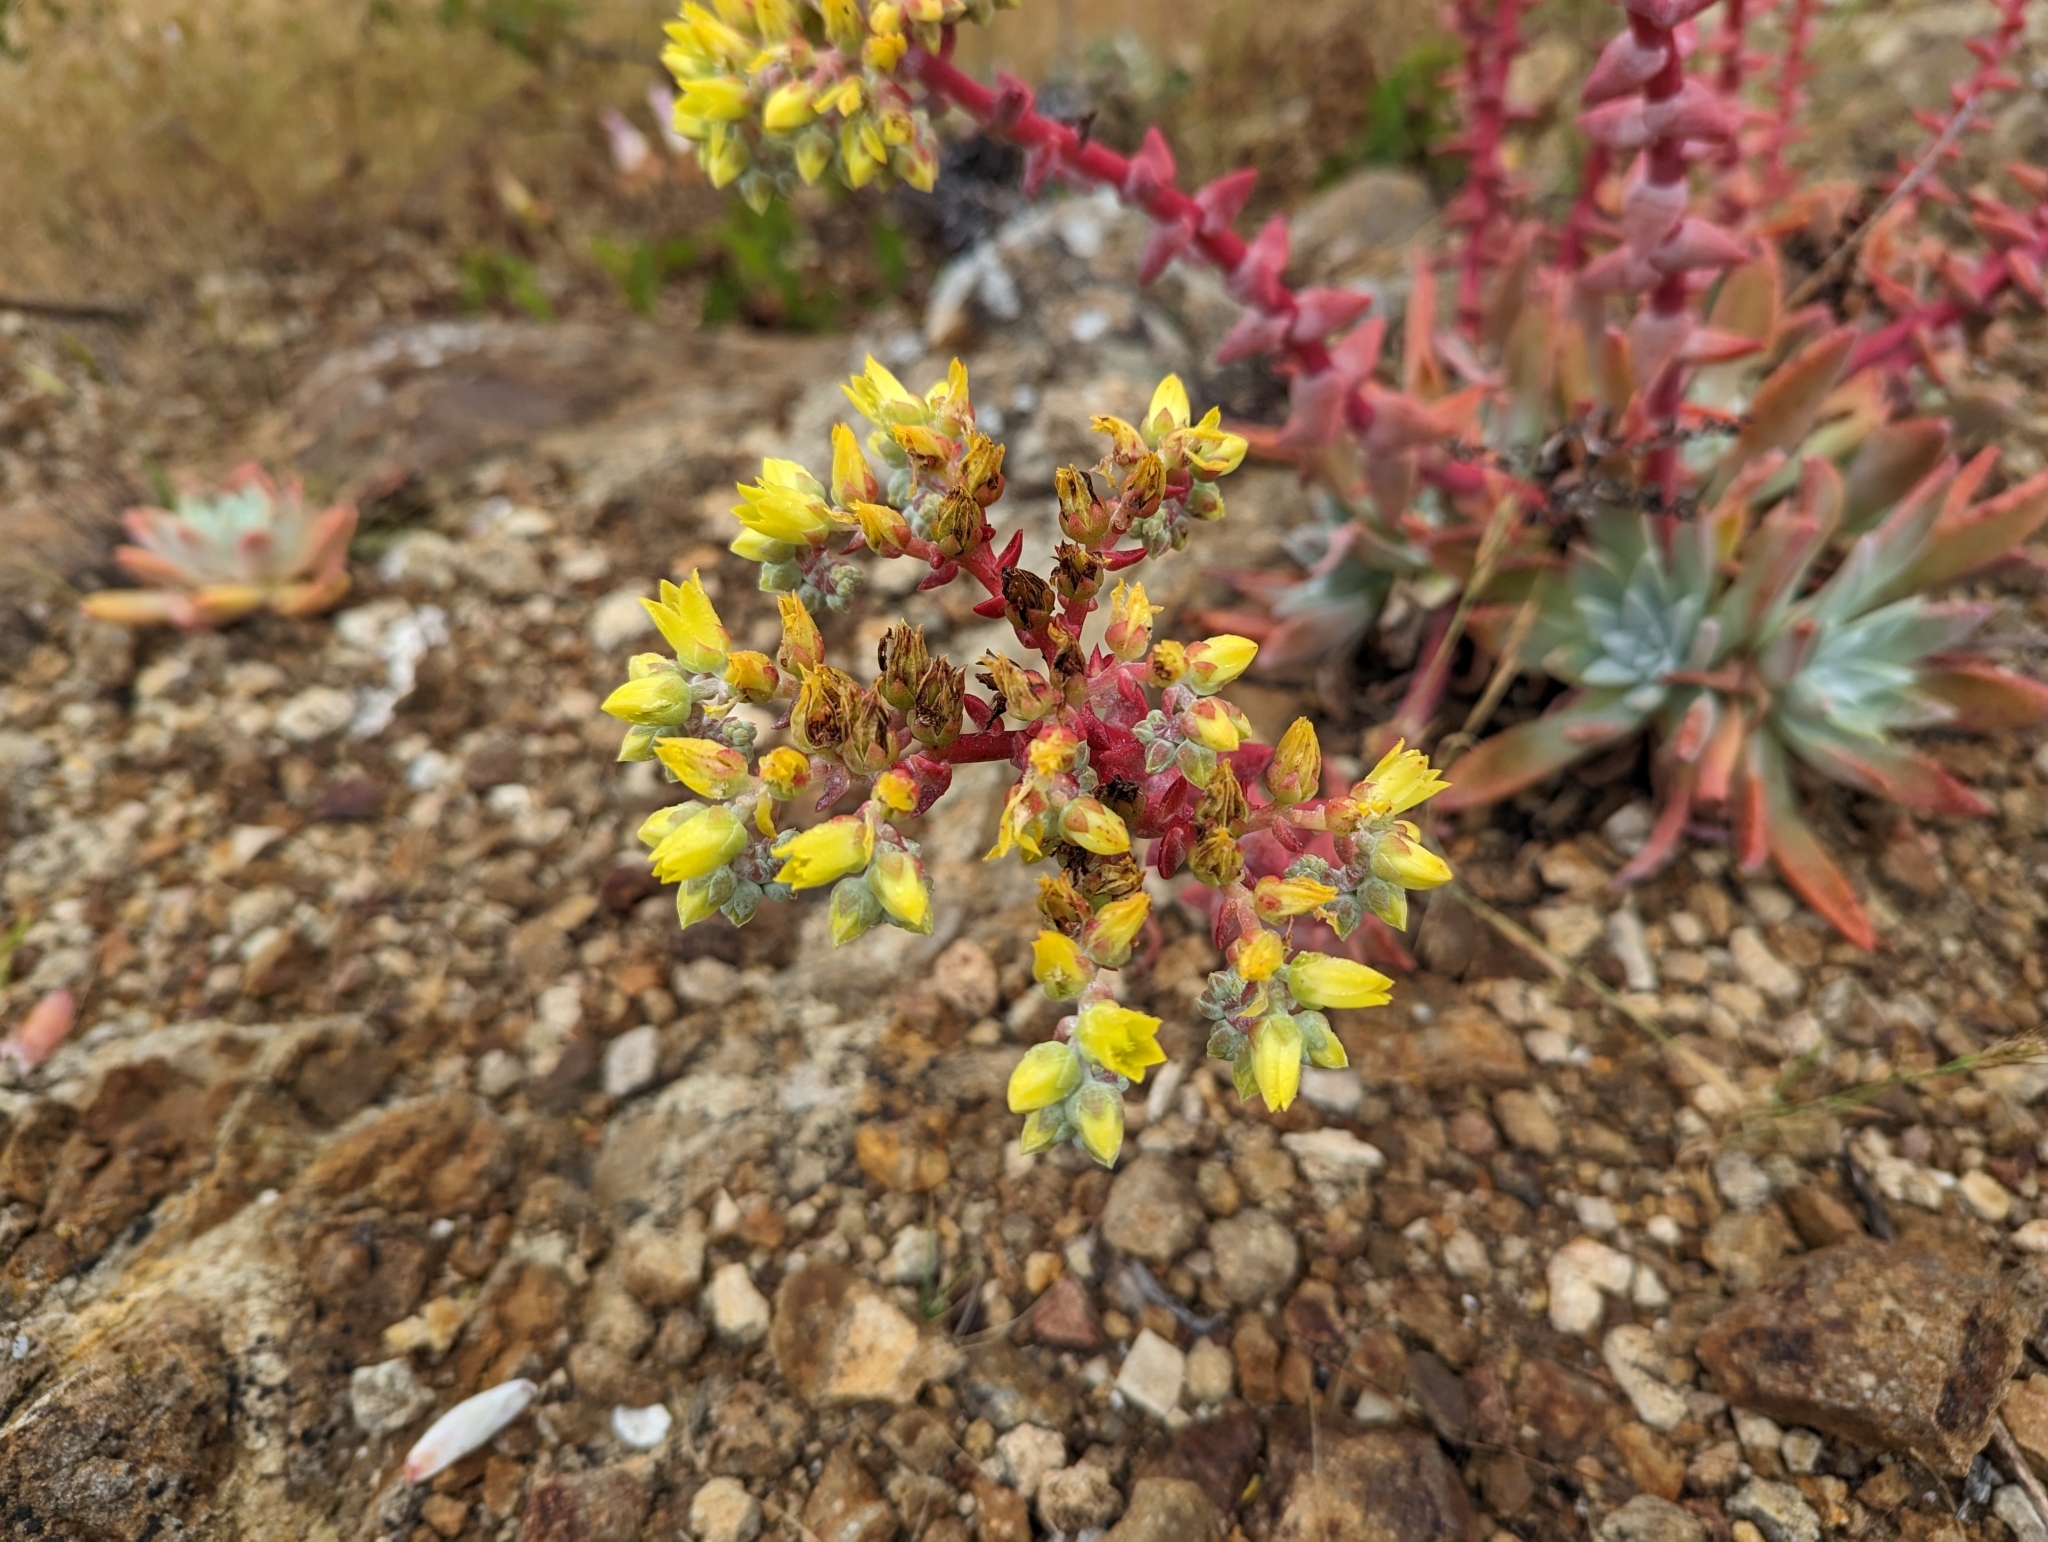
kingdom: Plantae
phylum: Tracheophyta
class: Magnoliopsida
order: Saxifragales
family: Crassulaceae
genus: Dudleya
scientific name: Dudleya greenei
